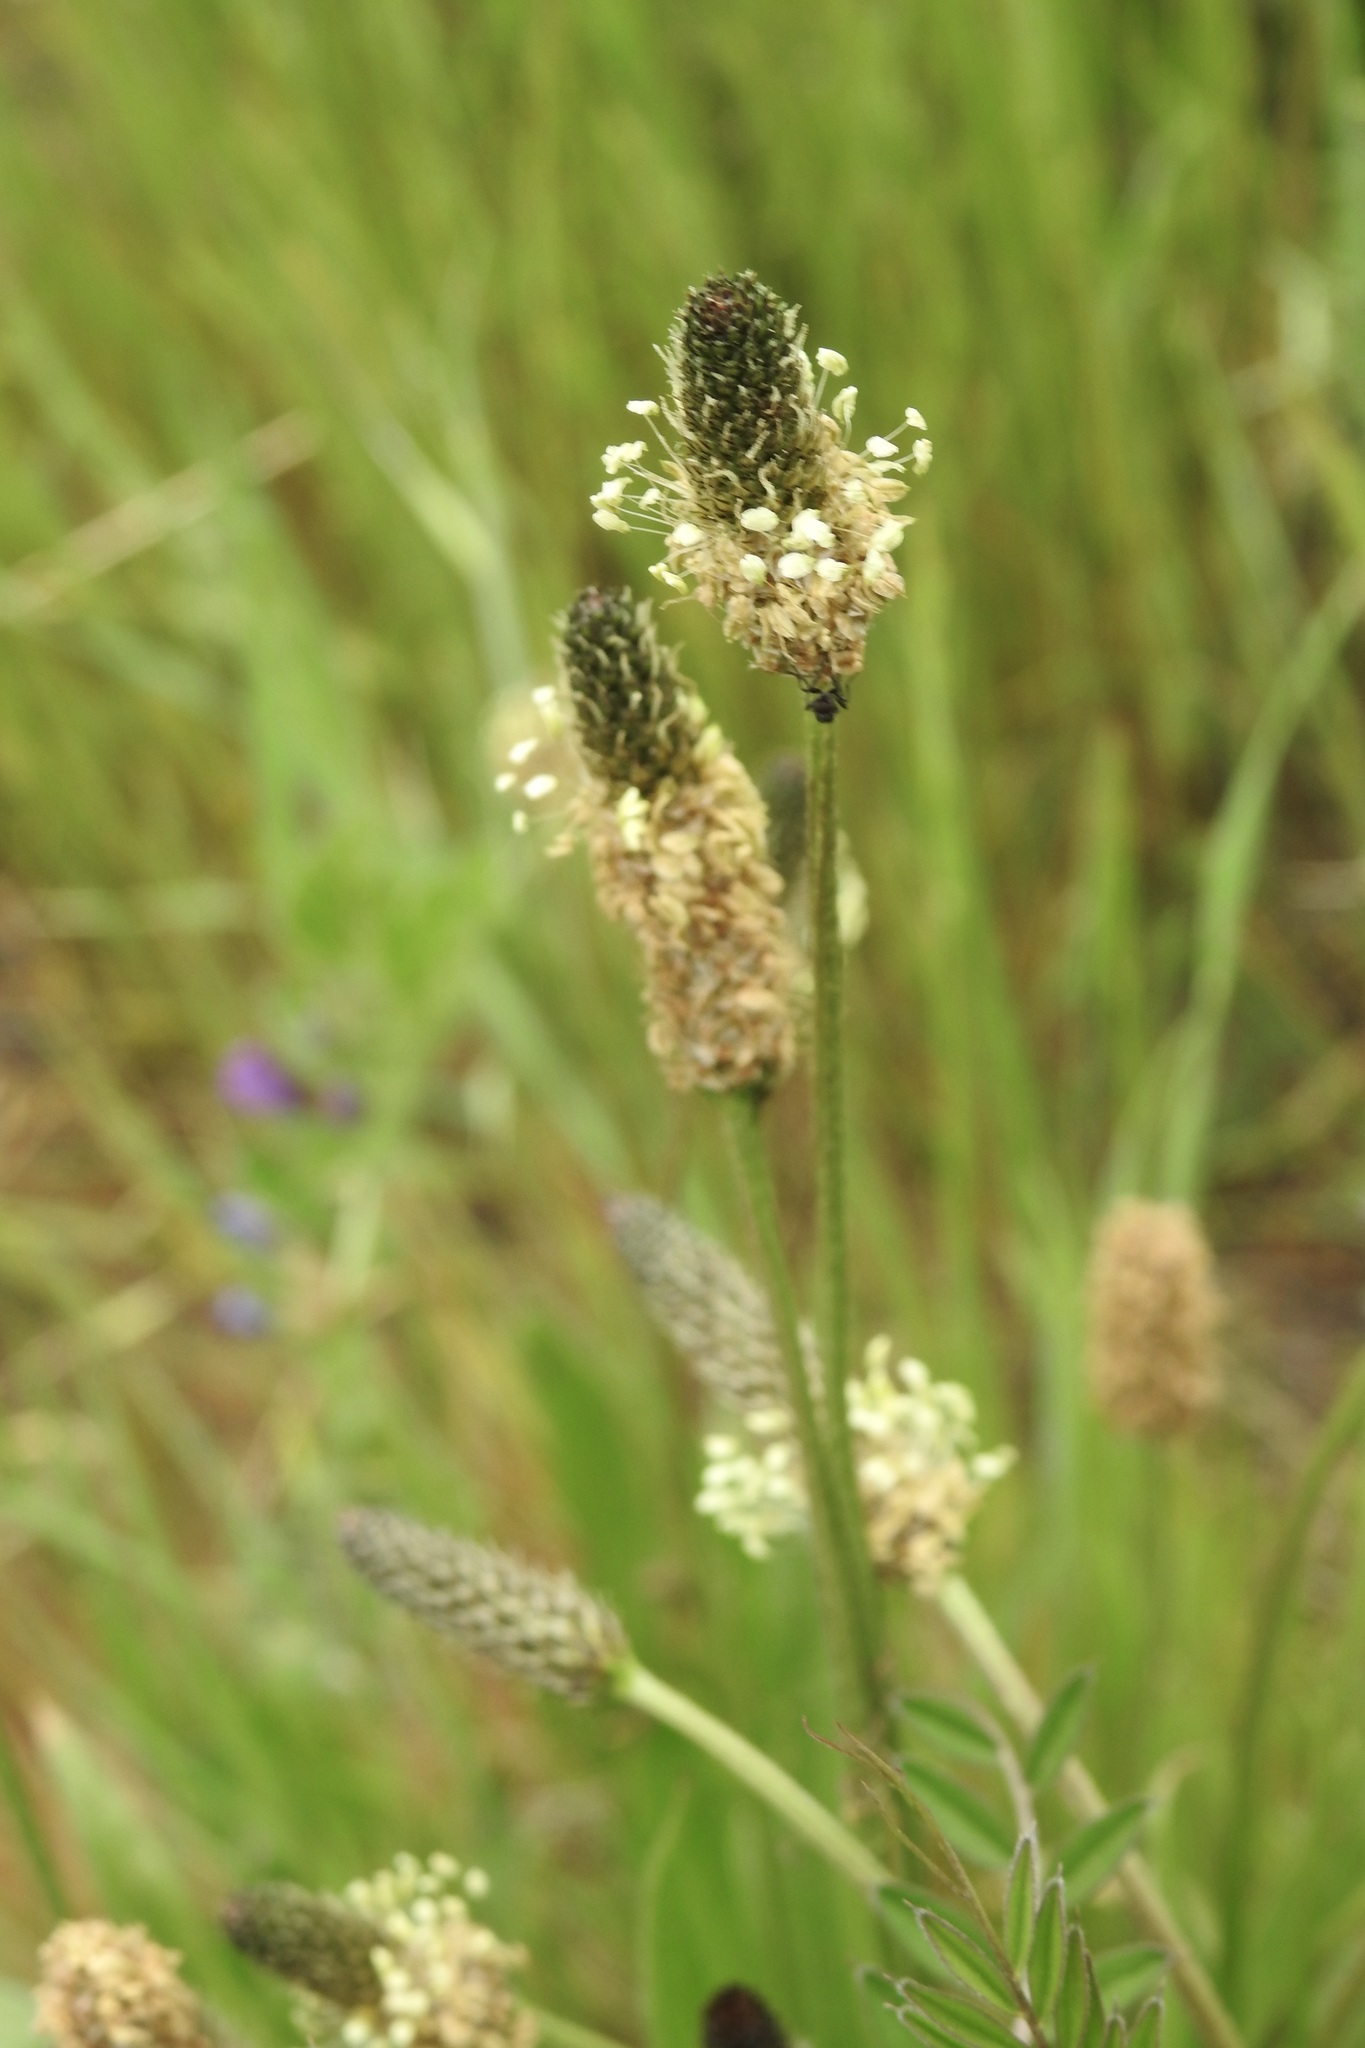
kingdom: Plantae
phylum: Tracheophyta
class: Magnoliopsida
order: Lamiales
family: Plantaginaceae
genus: Plantago
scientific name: Plantago lanceolata
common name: Ribwort plantain
